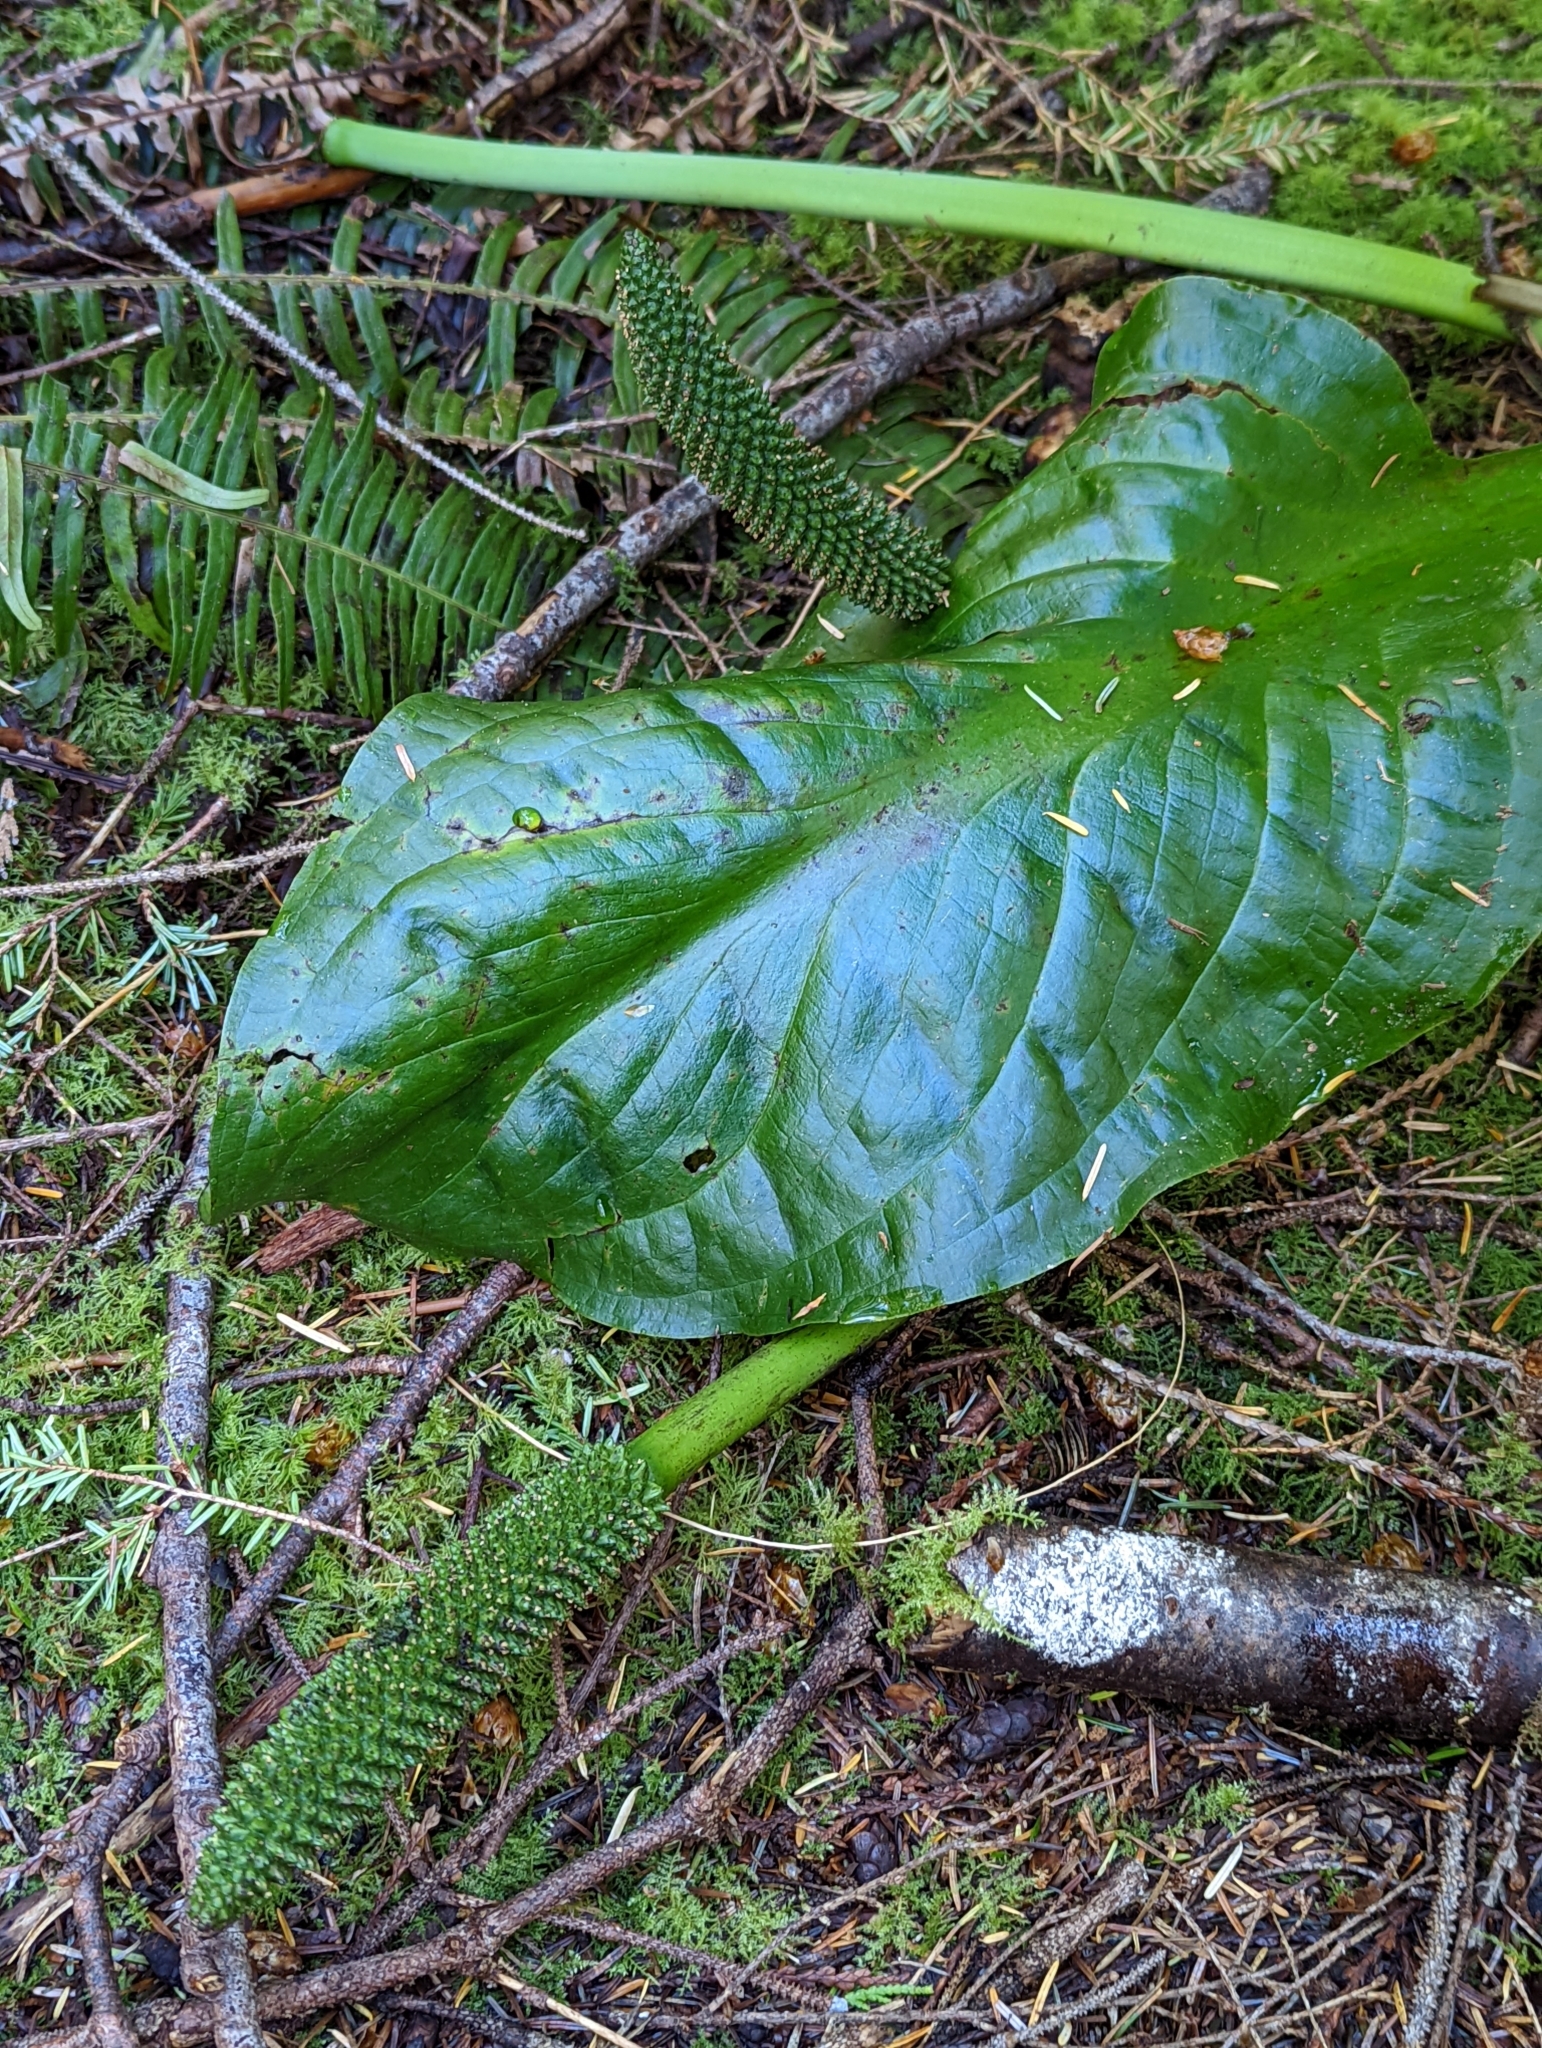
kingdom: Plantae
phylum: Tracheophyta
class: Liliopsida
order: Alismatales
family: Araceae
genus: Lysichiton
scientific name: Lysichiton americanus
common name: American skunk cabbage
